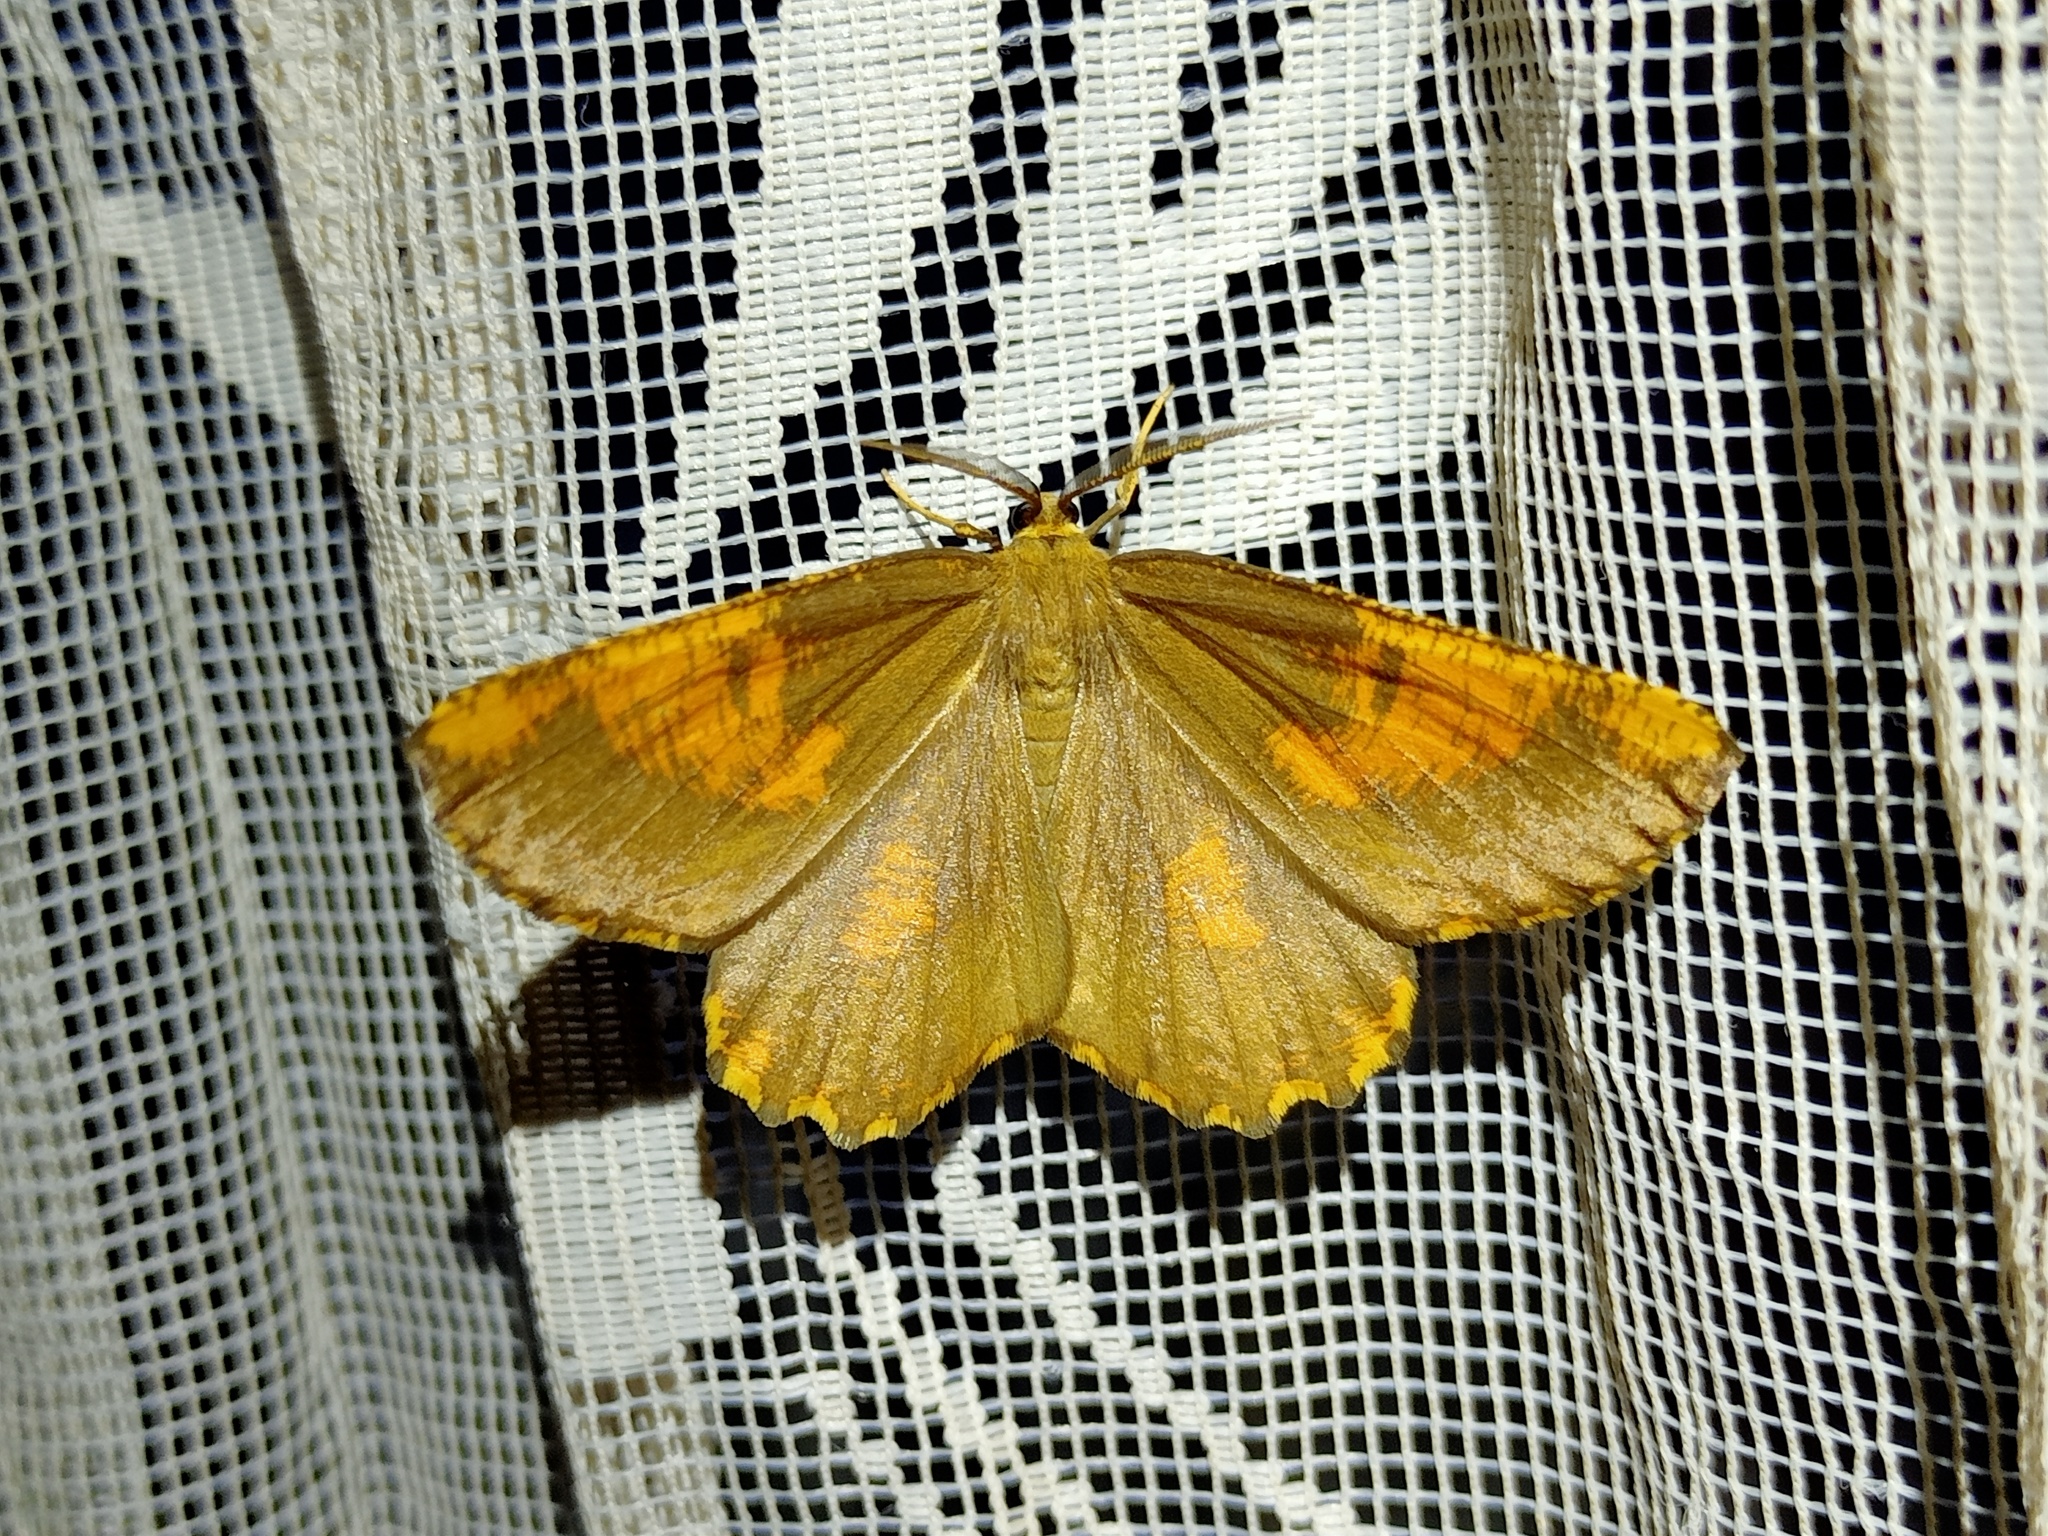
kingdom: Animalia
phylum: Arthropoda
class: Insecta
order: Lepidoptera
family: Geometridae
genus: Angerona
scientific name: Angerona prunaria
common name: Orange moth
